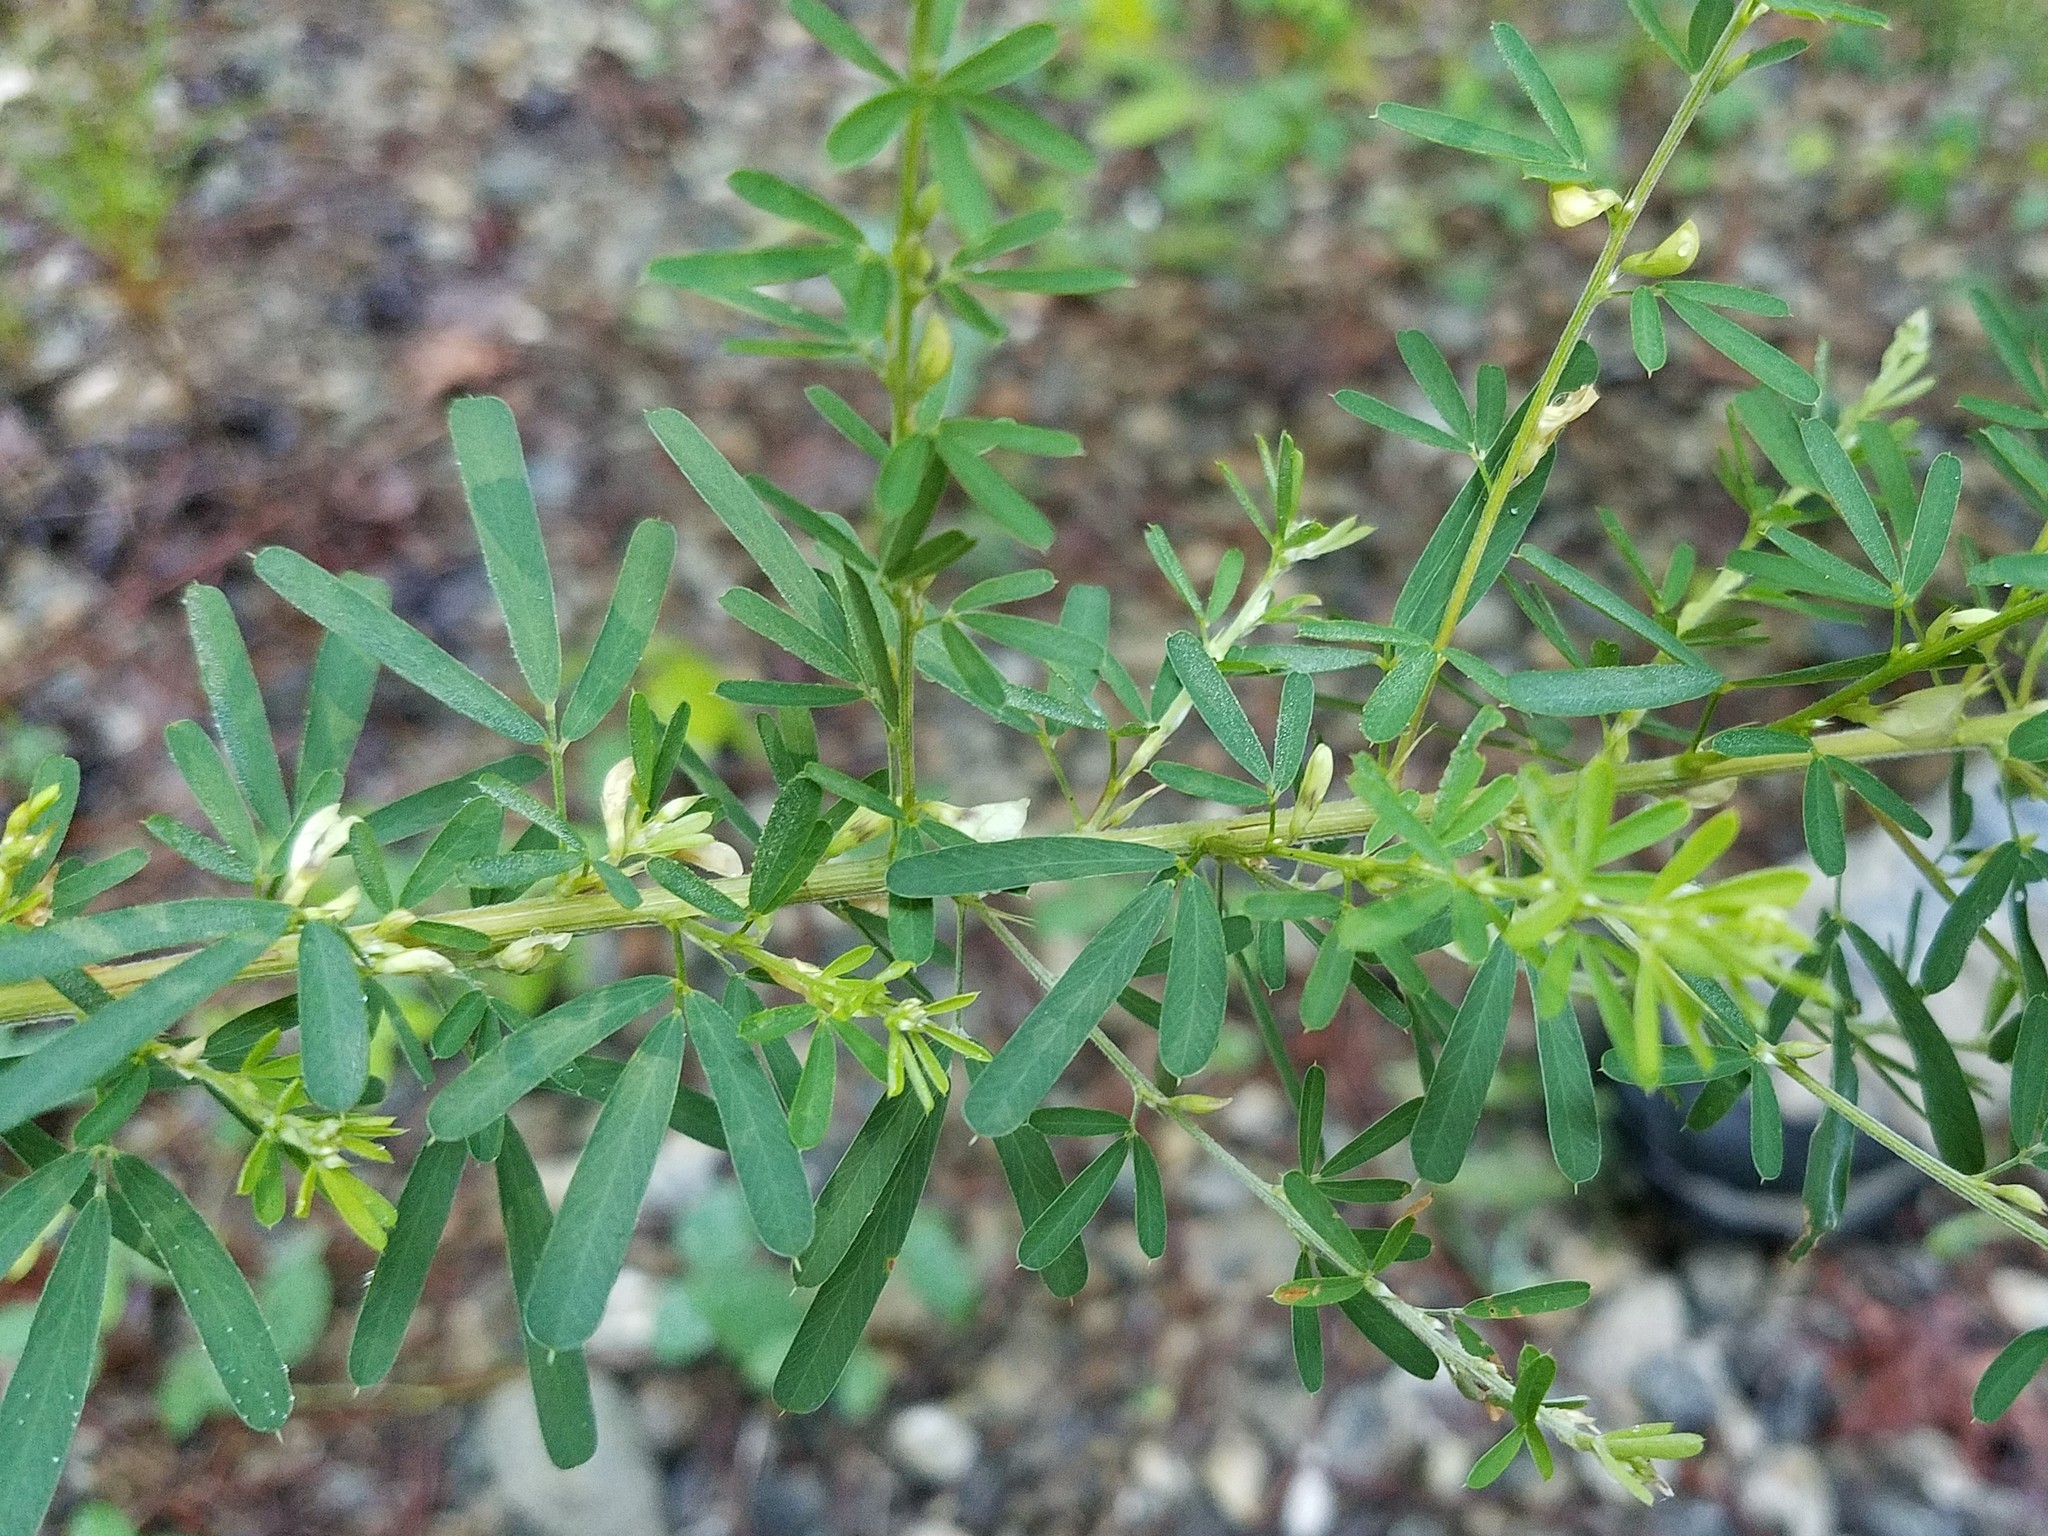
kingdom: Plantae
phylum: Tracheophyta
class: Magnoliopsida
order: Fabales
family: Fabaceae
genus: Lespedeza
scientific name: Lespedeza cuneata
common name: Chinese bush-clover
